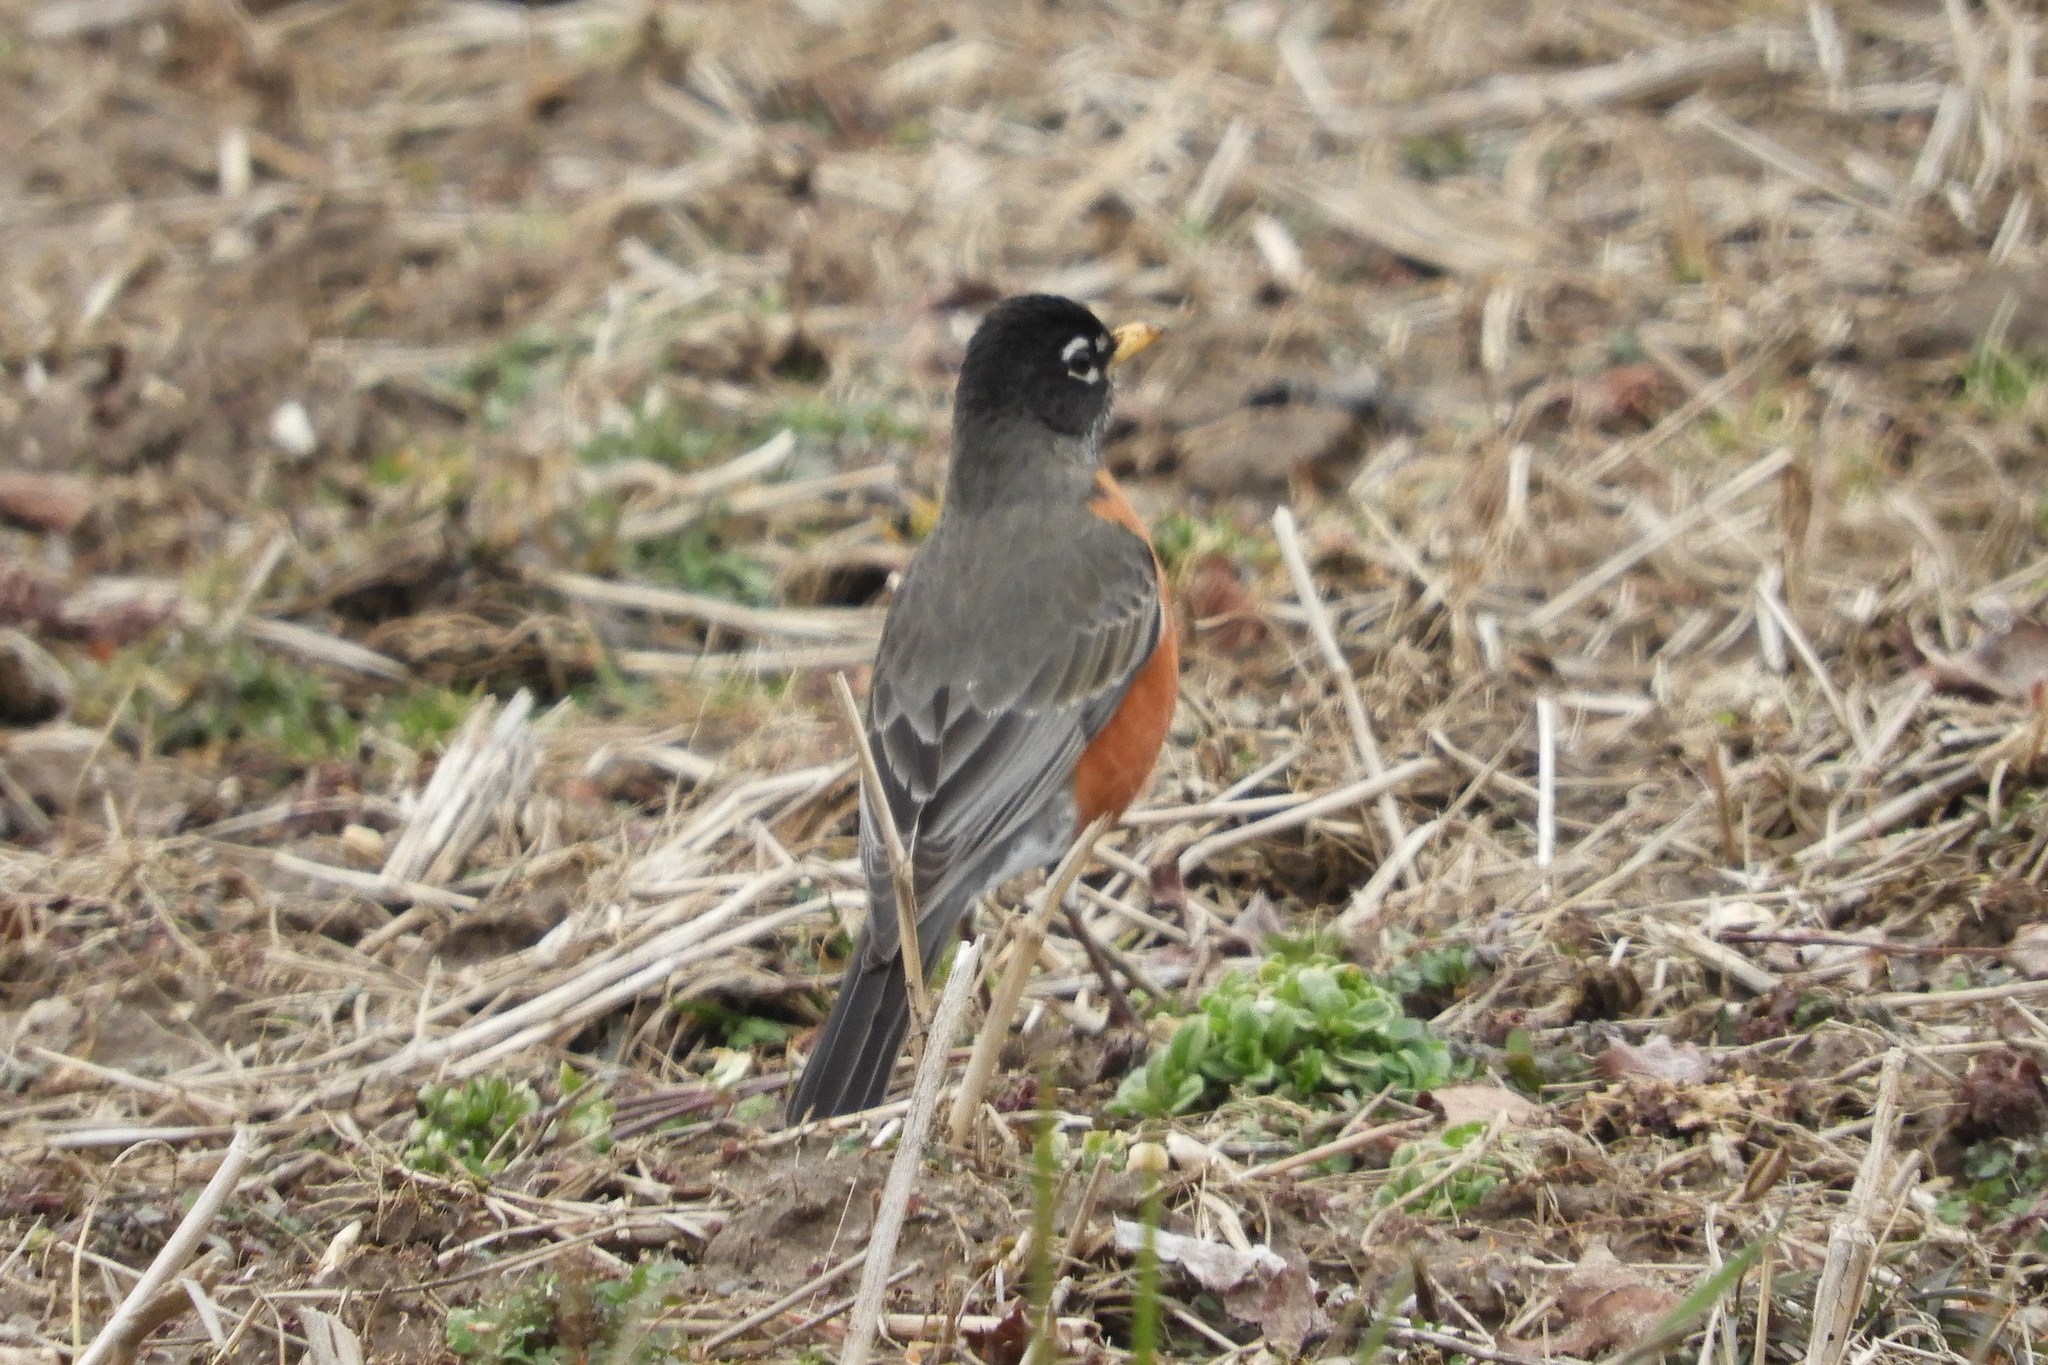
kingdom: Animalia
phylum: Chordata
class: Aves
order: Passeriformes
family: Turdidae
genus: Turdus
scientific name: Turdus migratorius
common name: American robin
